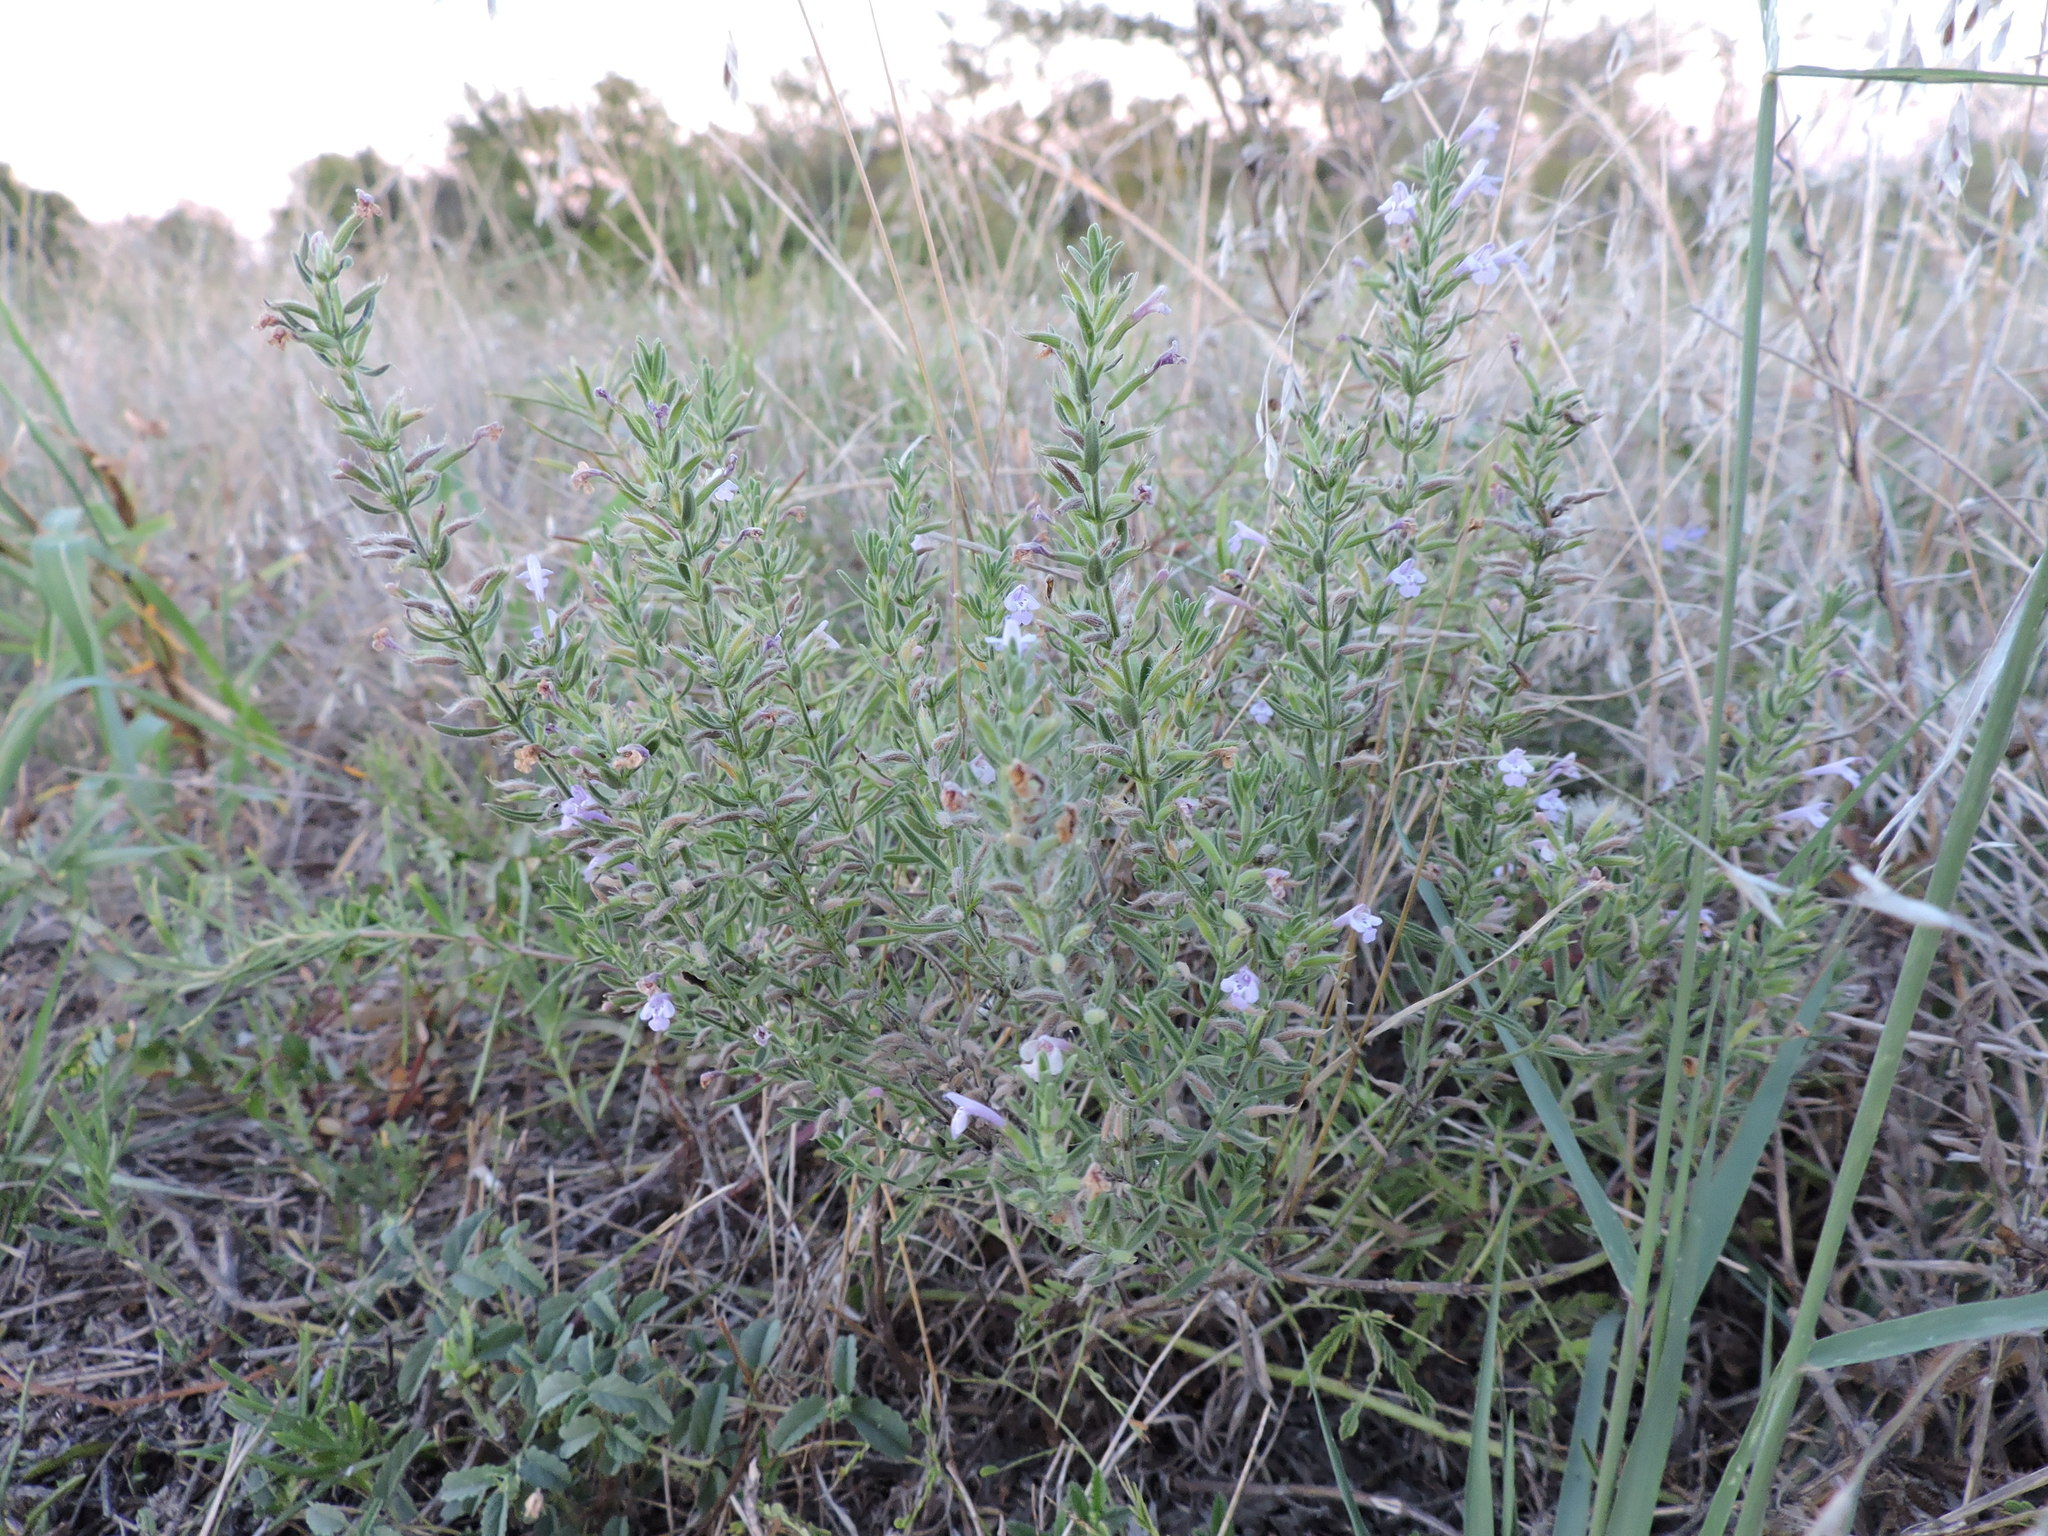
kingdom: Plantae
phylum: Tracheophyta
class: Magnoliopsida
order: Lamiales
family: Lamiaceae
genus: Hedeoma
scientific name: Hedeoma reverchonii
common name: Reverchon's false penny-royal
